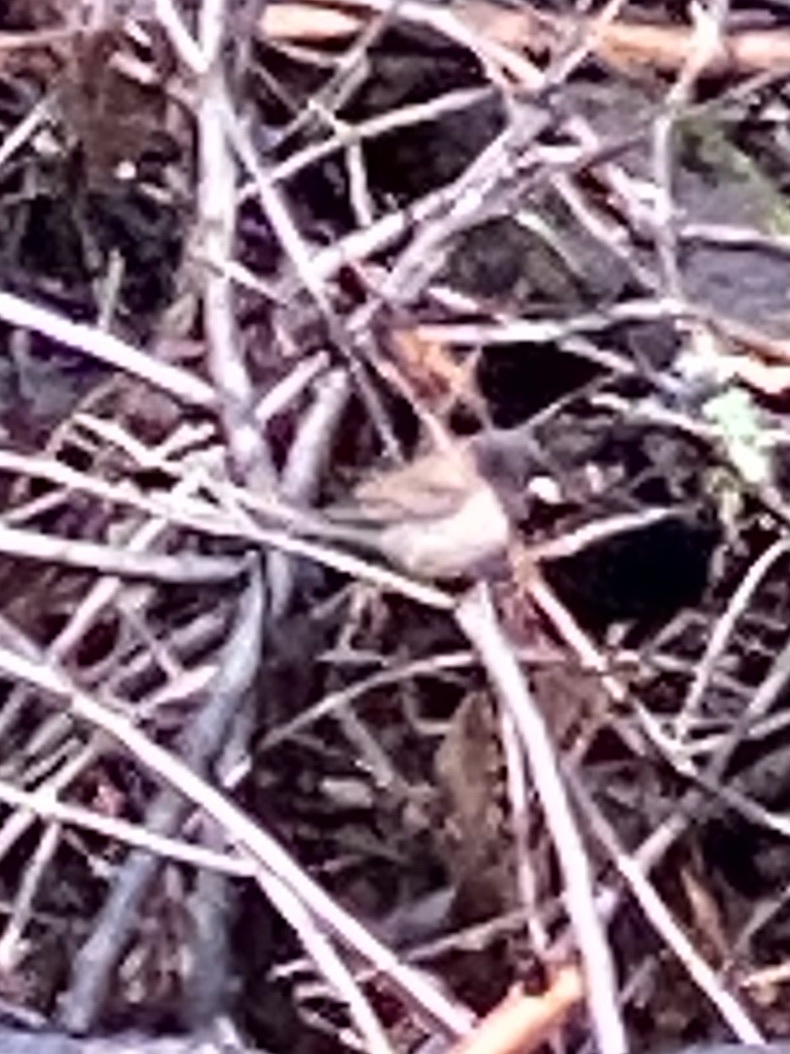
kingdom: Animalia
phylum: Chordata
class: Aves
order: Passeriformes
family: Passerellidae
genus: Junco
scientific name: Junco hyemalis
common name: Dark-eyed junco
